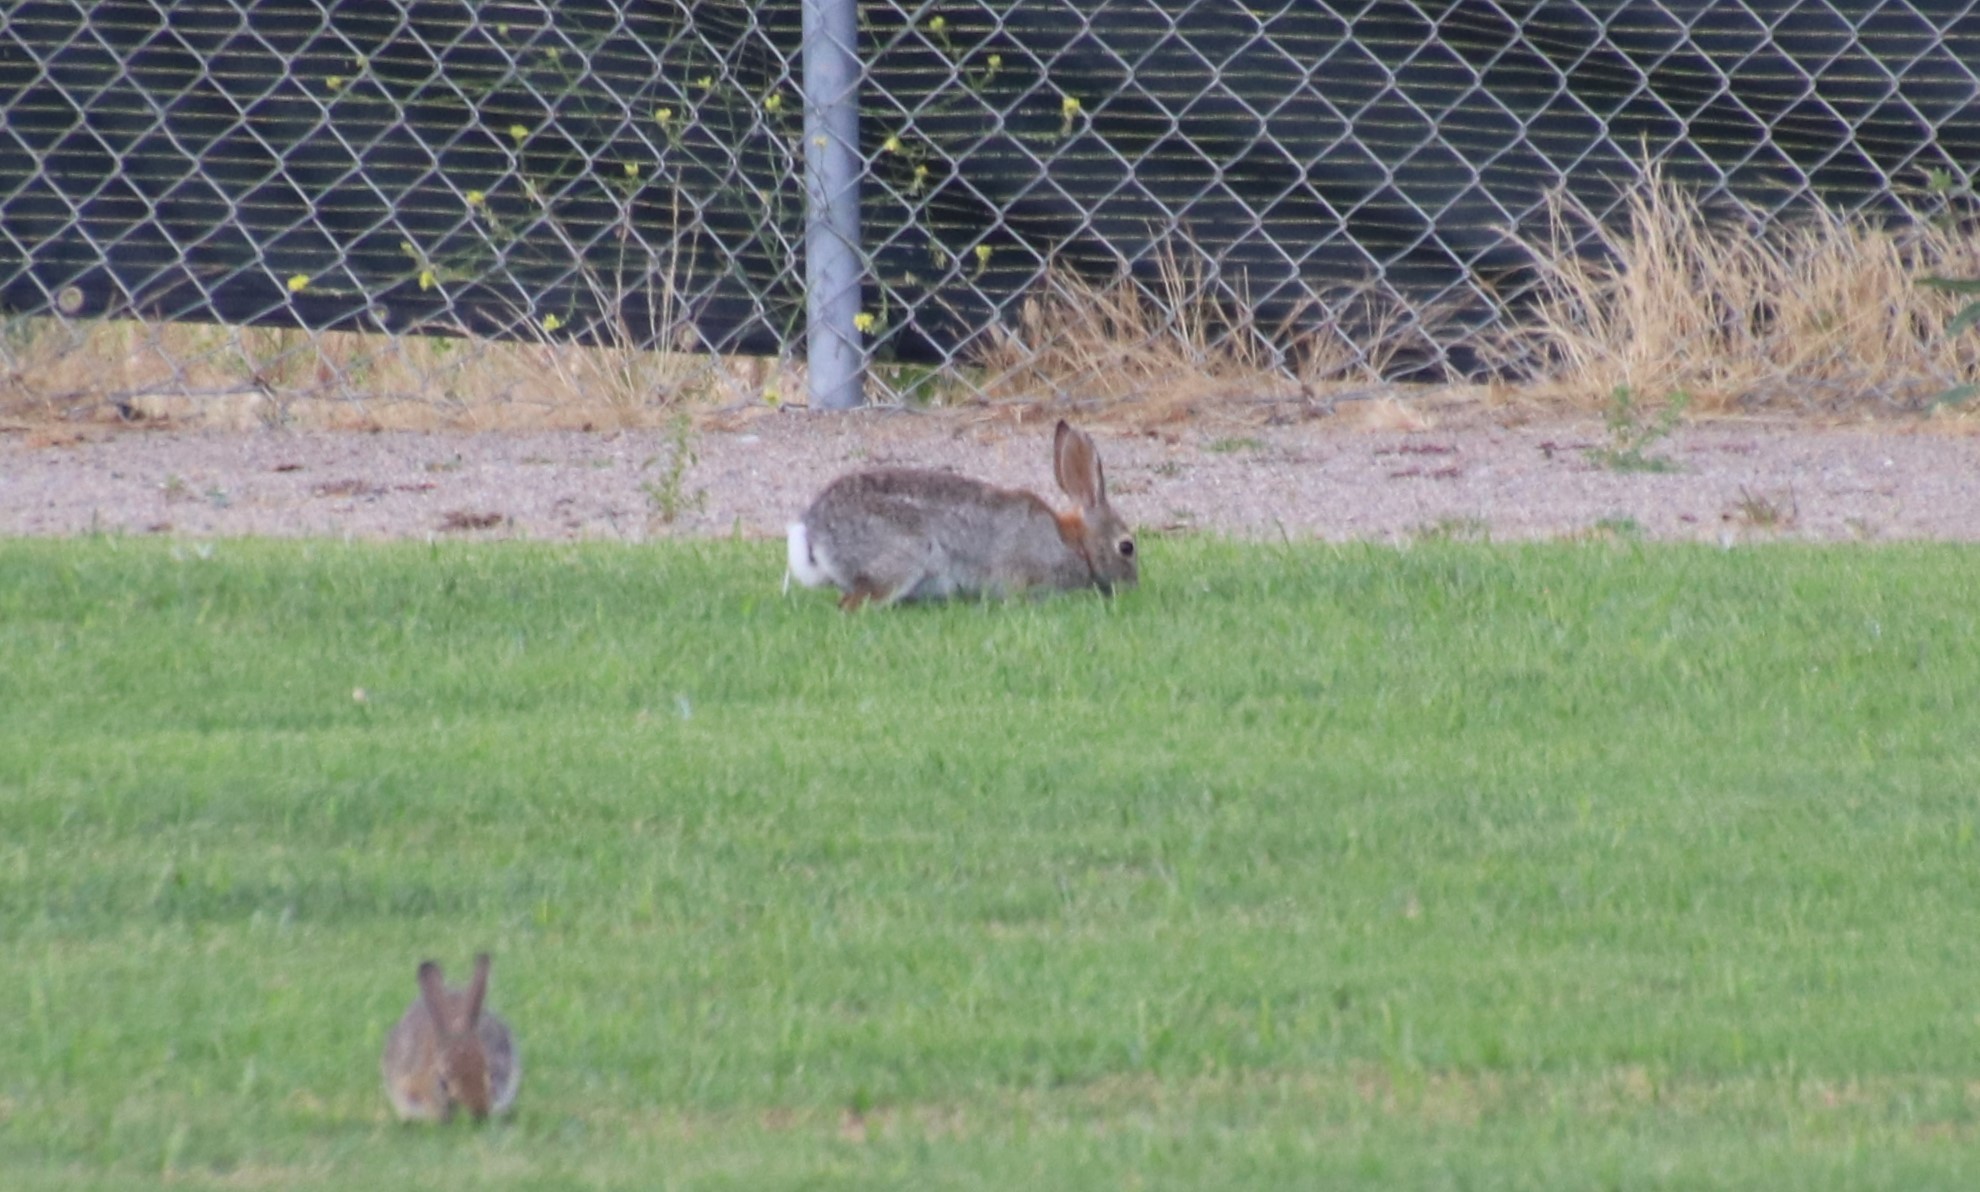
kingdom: Animalia
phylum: Chordata
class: Mammalia
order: Lagomorpha
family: Leporidae
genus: Sylvilagus
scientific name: Sylvilagus audubonii
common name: Desert cottontail
